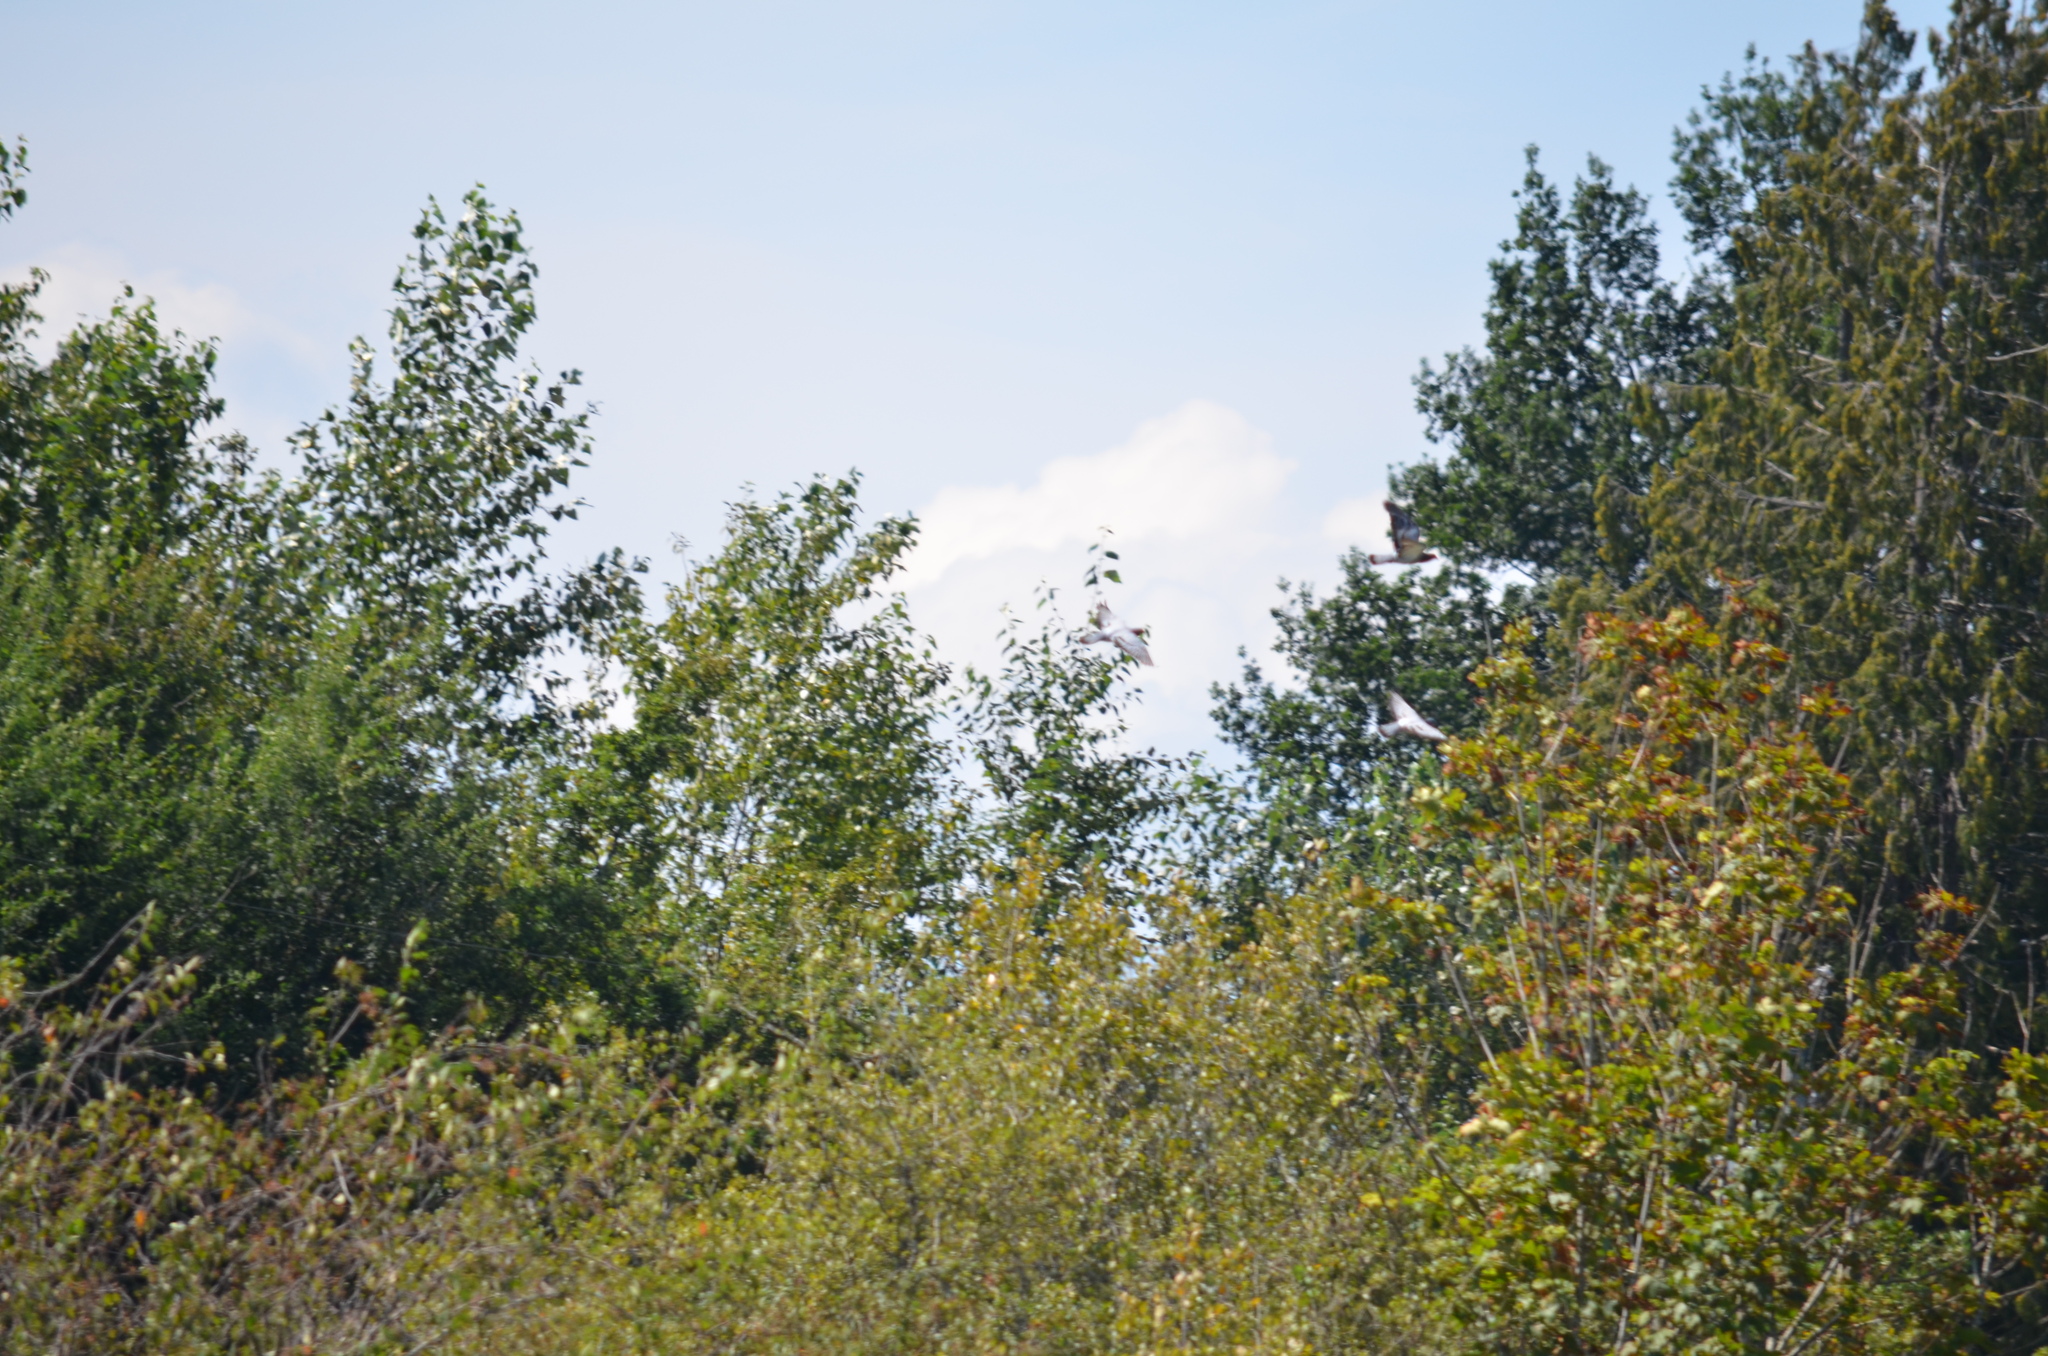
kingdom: Animalia
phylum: Chordata
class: Aves
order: Columbiformes
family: Columbidae
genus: Columba
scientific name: Columba livia
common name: Rock pigeon
